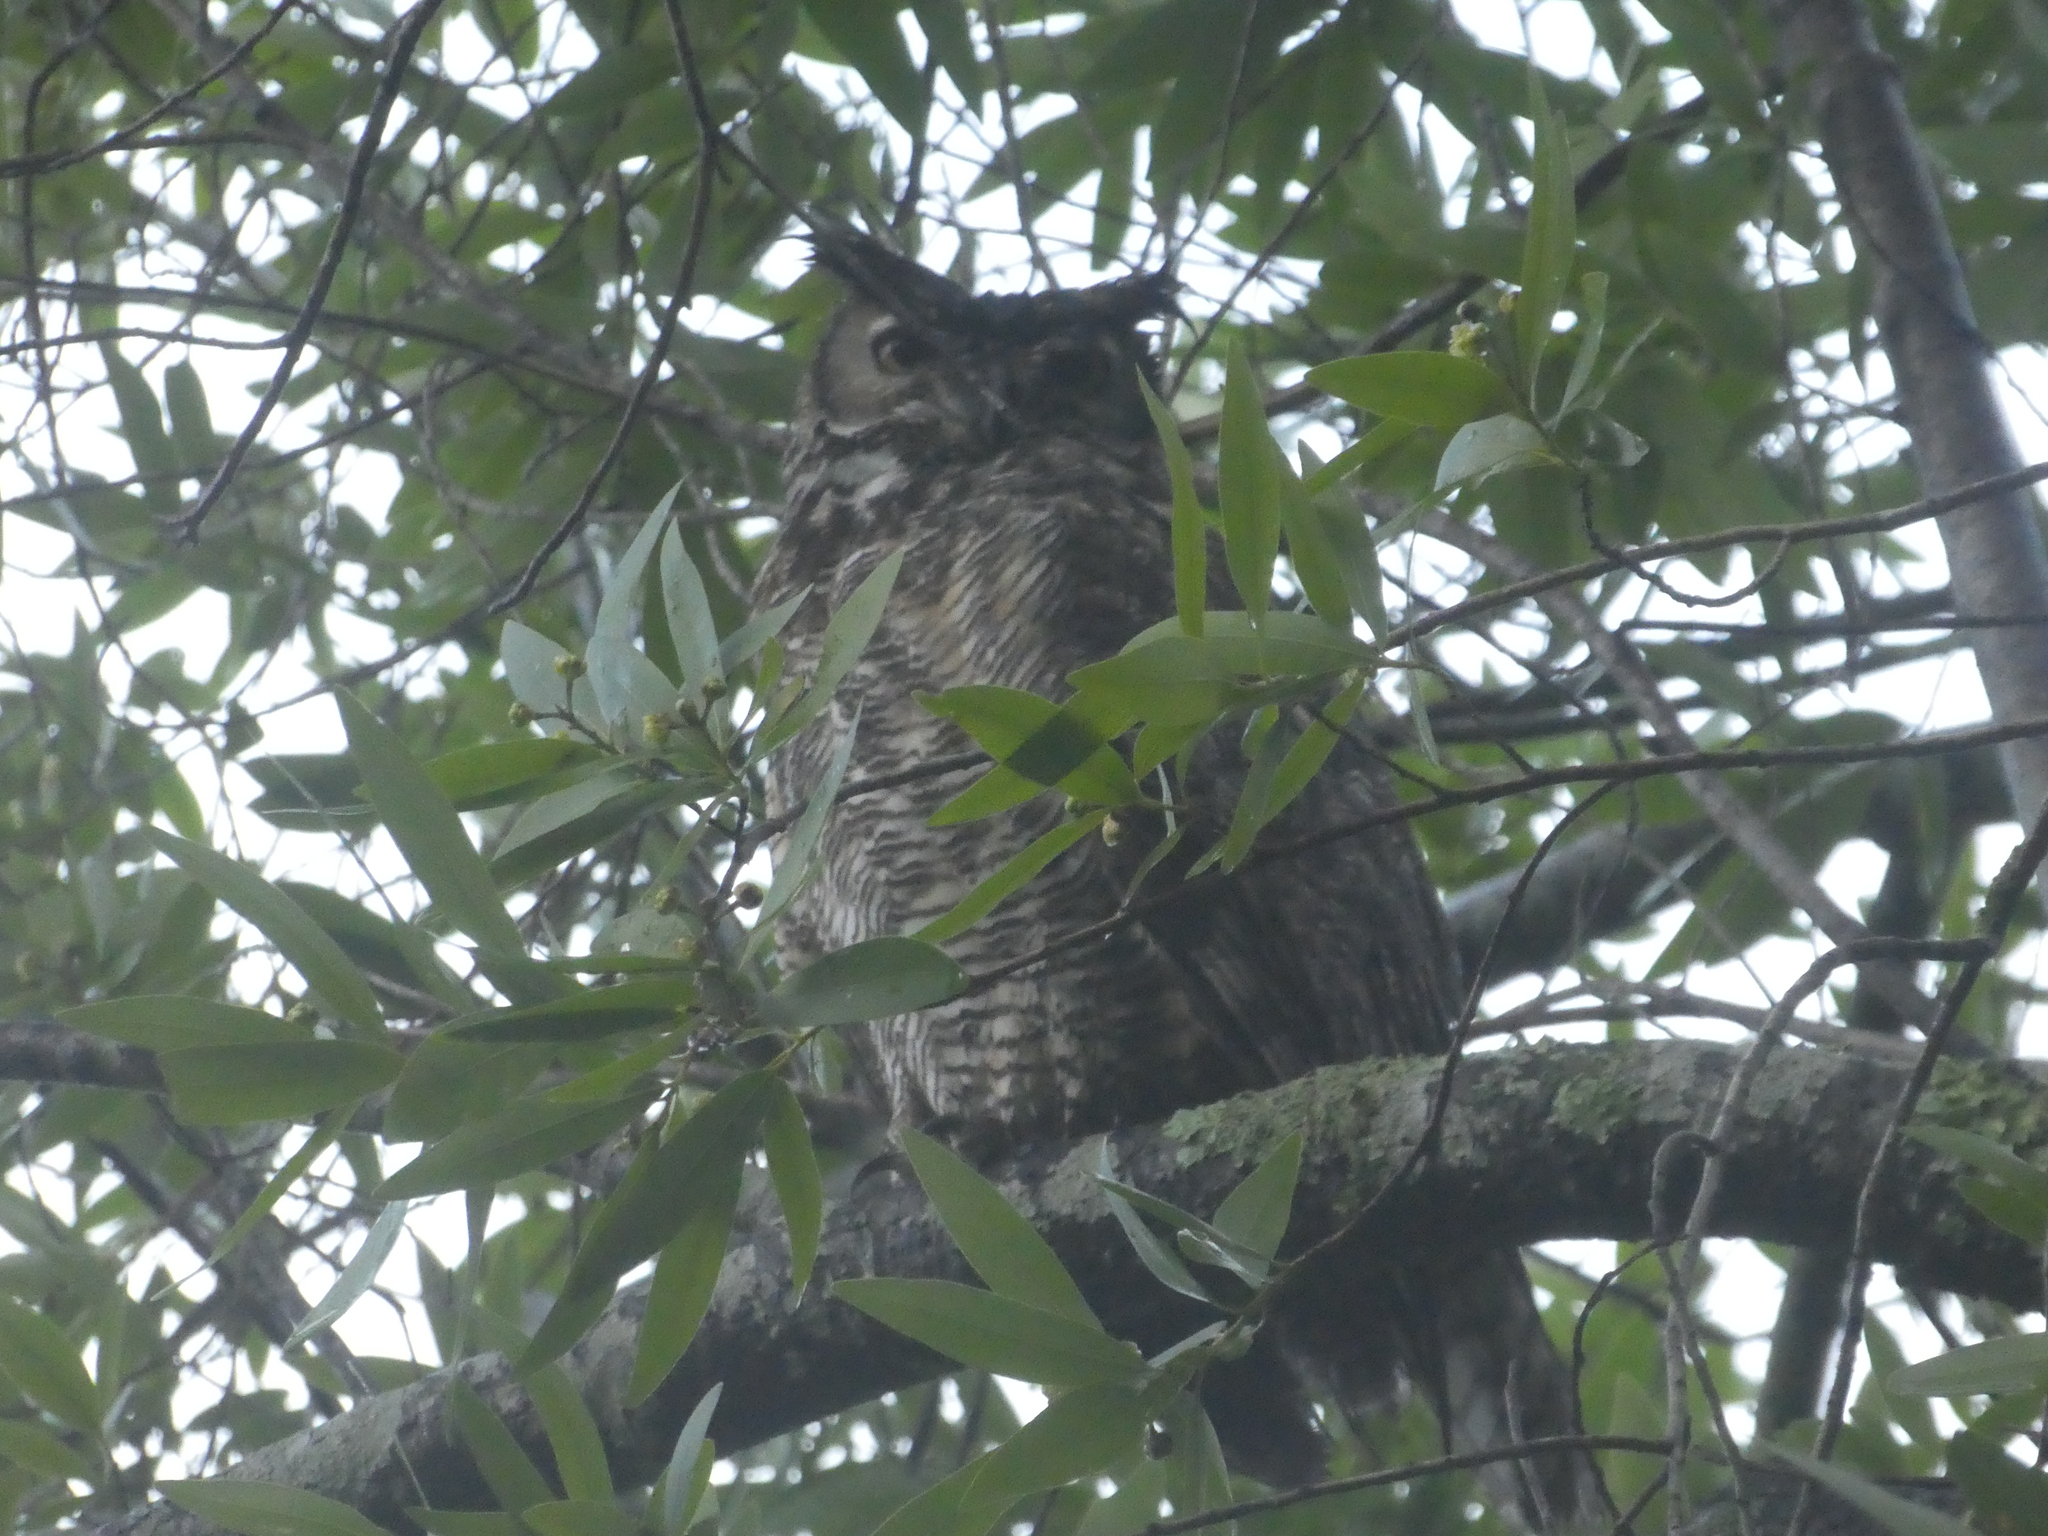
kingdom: Animalia
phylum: Chordata
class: Aves
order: Strigiformes
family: Strigidae
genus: Bubo
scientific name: Bubo virginianus
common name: Great horned owl
